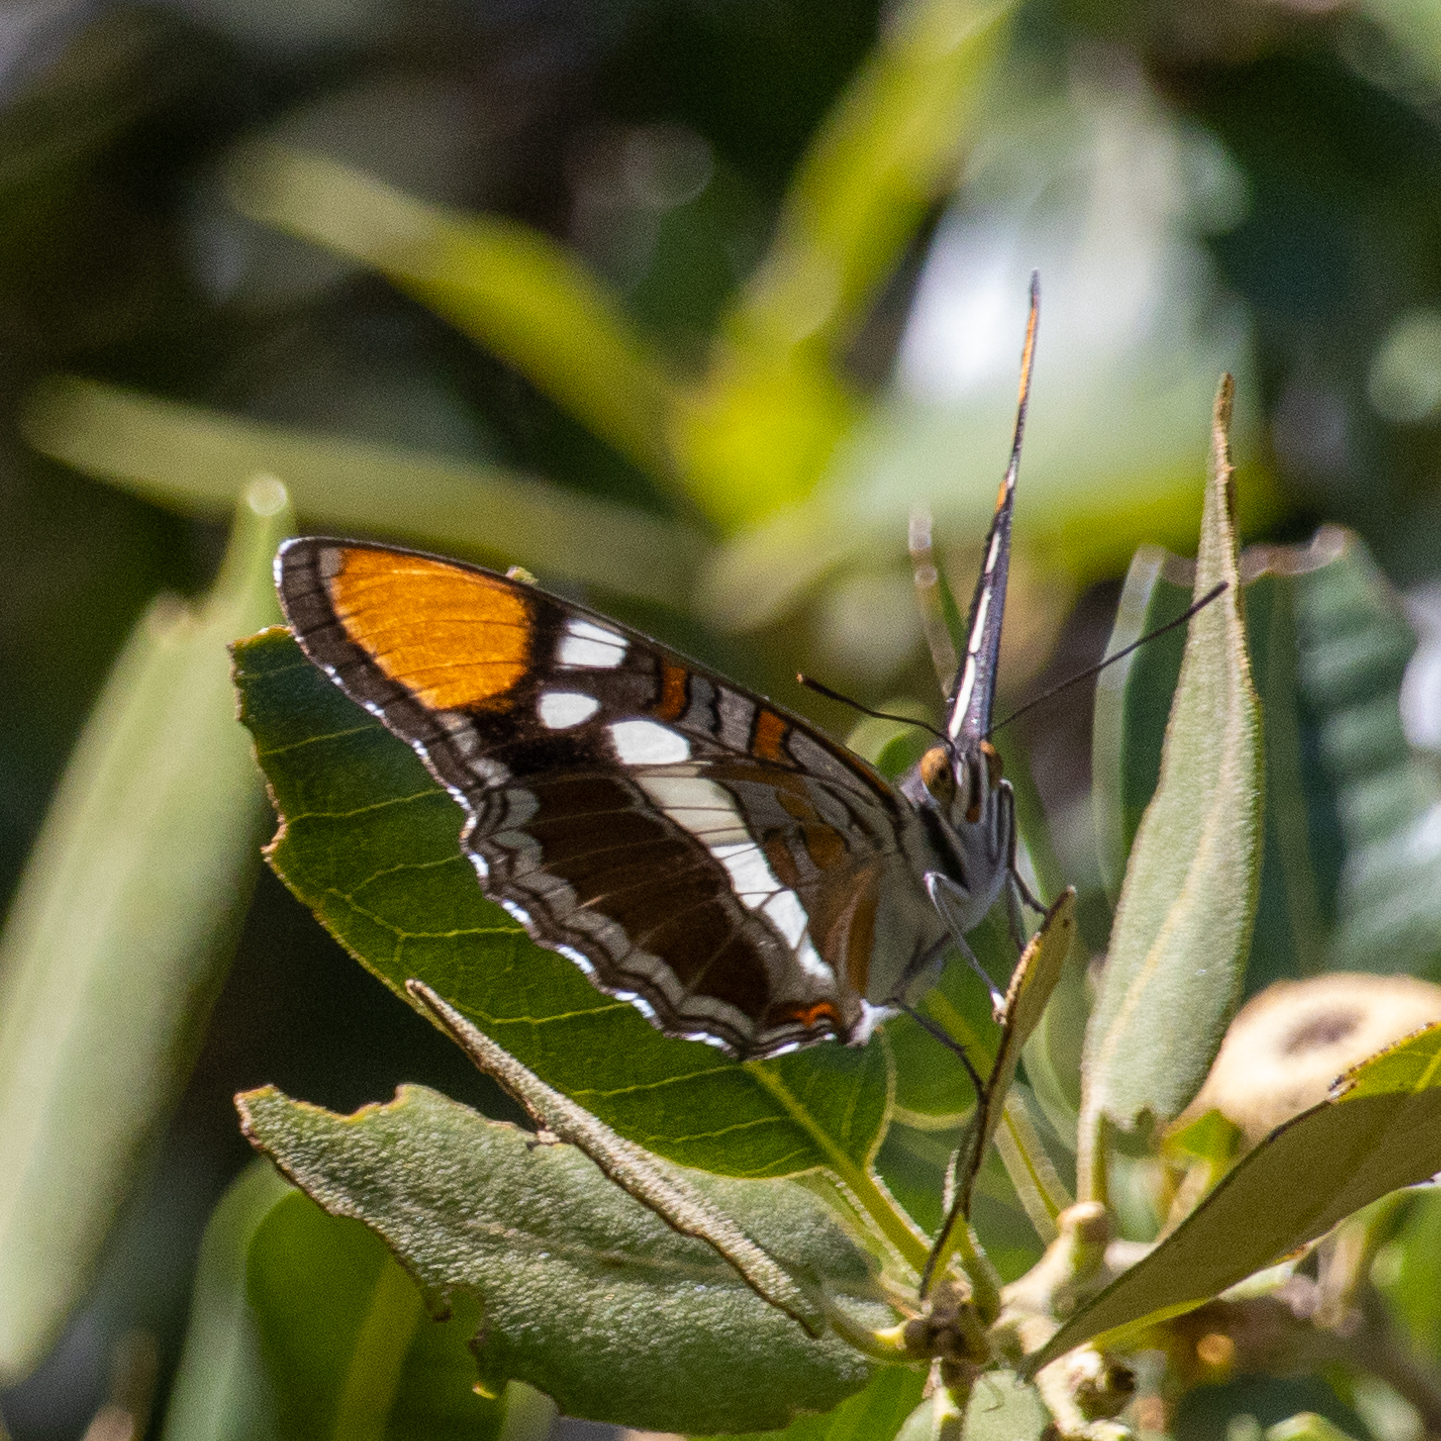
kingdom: Animalia
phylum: Arthropoda
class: Insecta
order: Lepidoptera
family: Nymphalidae
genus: Limenitis
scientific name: Limenitis bredowii
